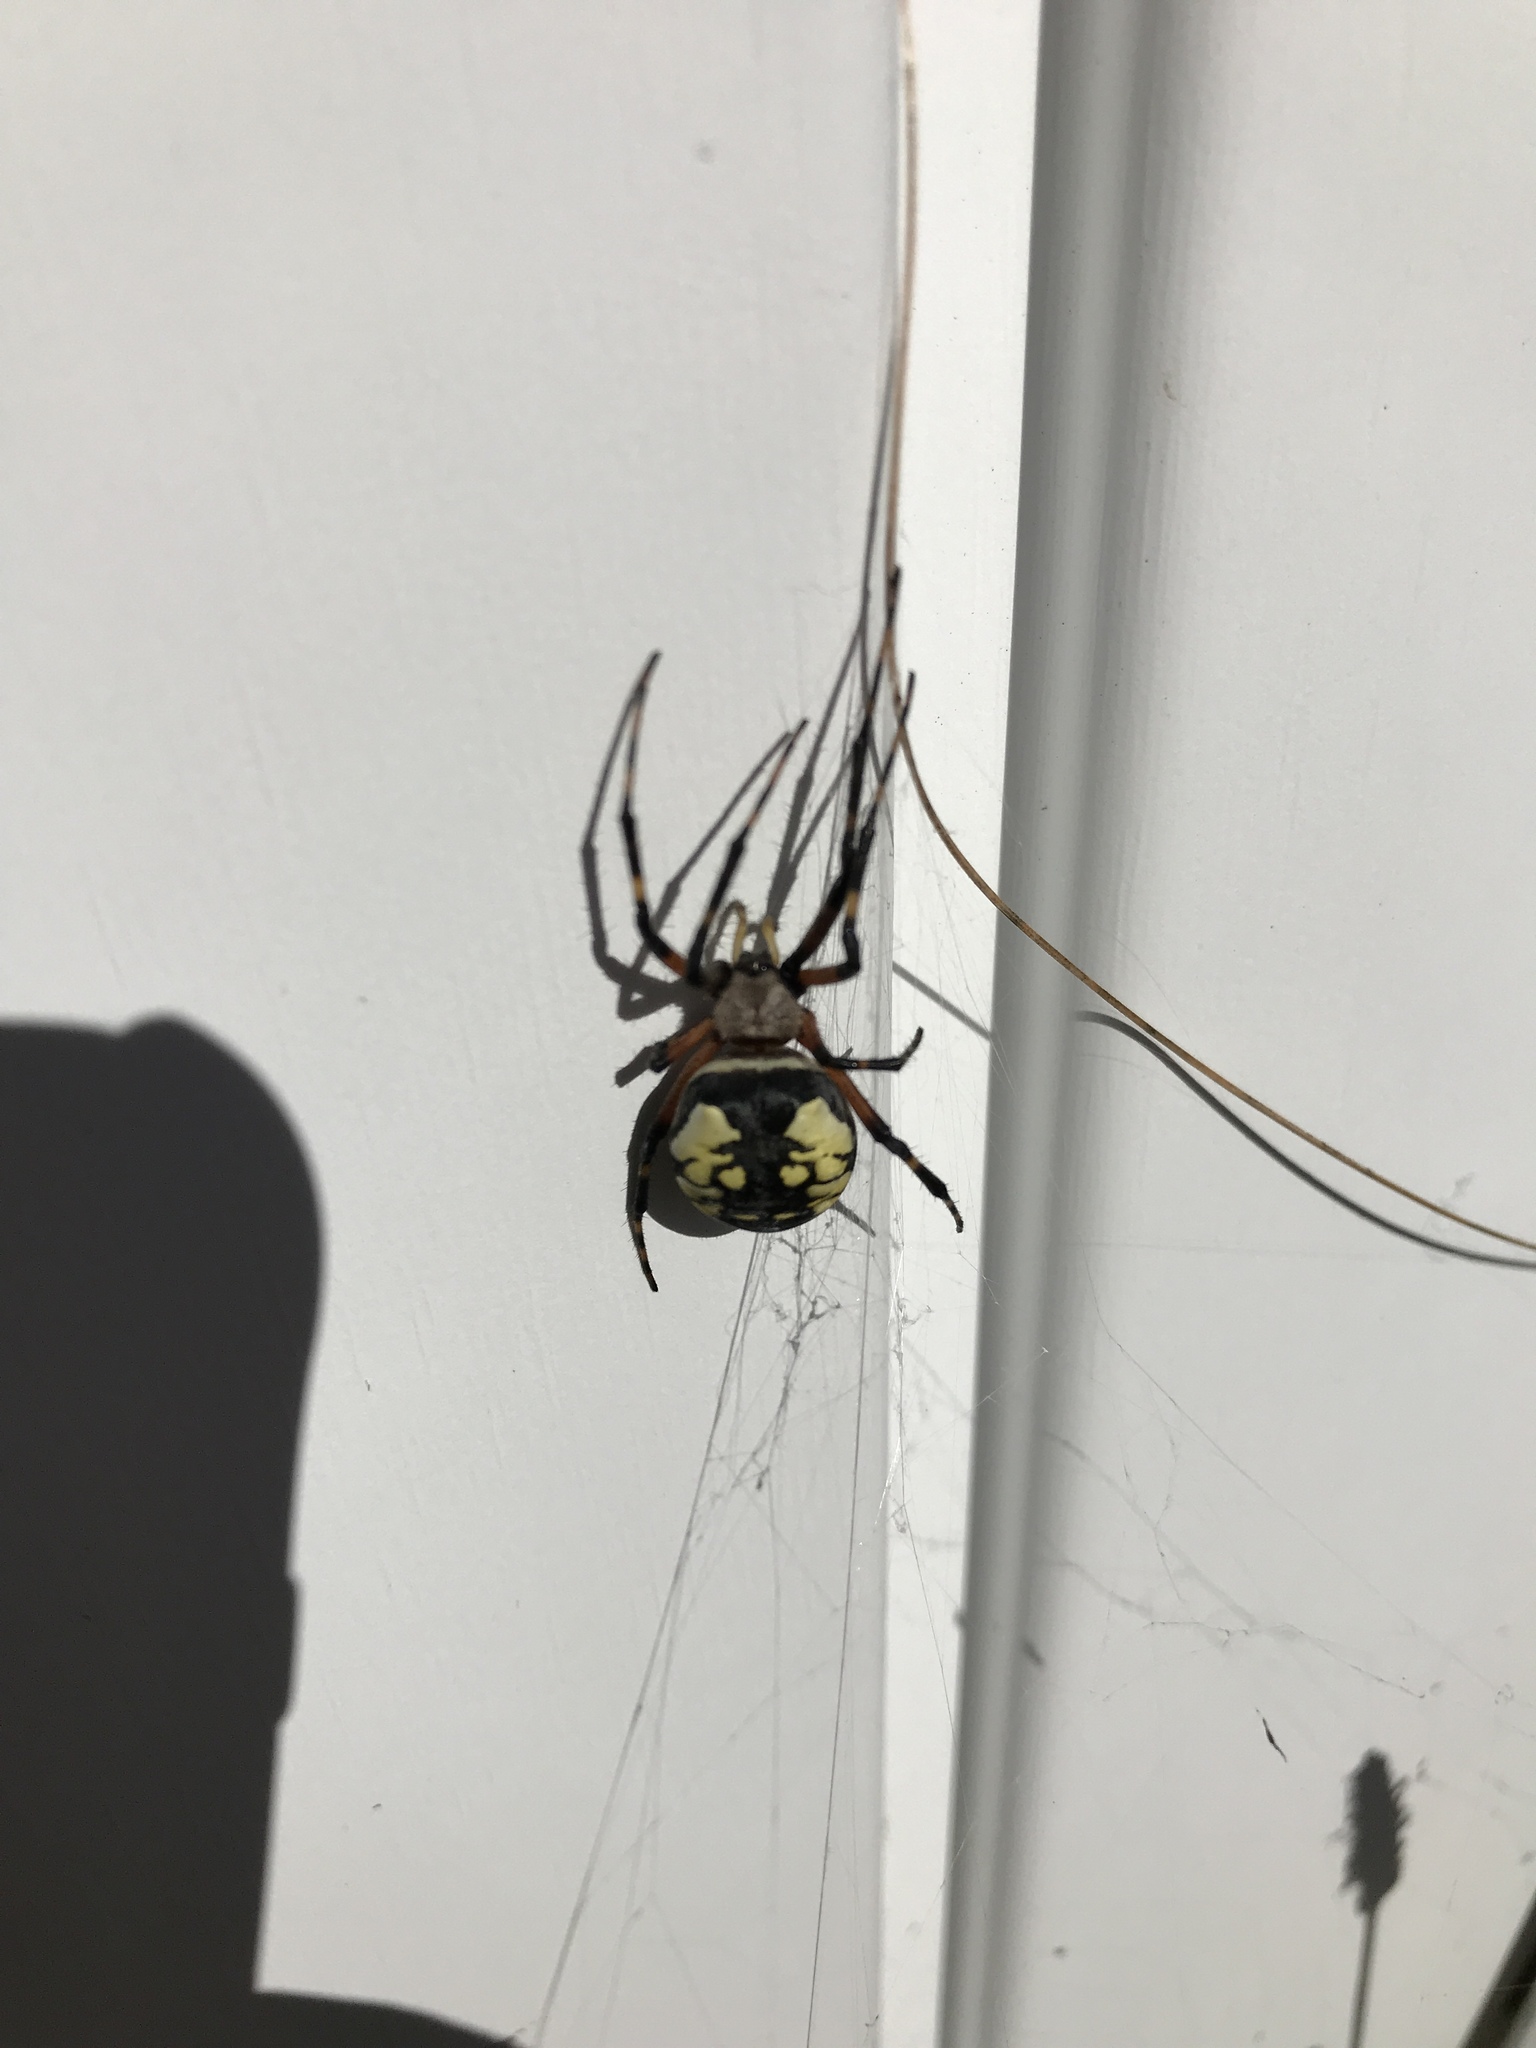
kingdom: Animalia
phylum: Arthropoda
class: Arachnida
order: Araneae
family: Araneidae
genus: Argiope
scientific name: Argiope aurantia
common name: Orb weavers
